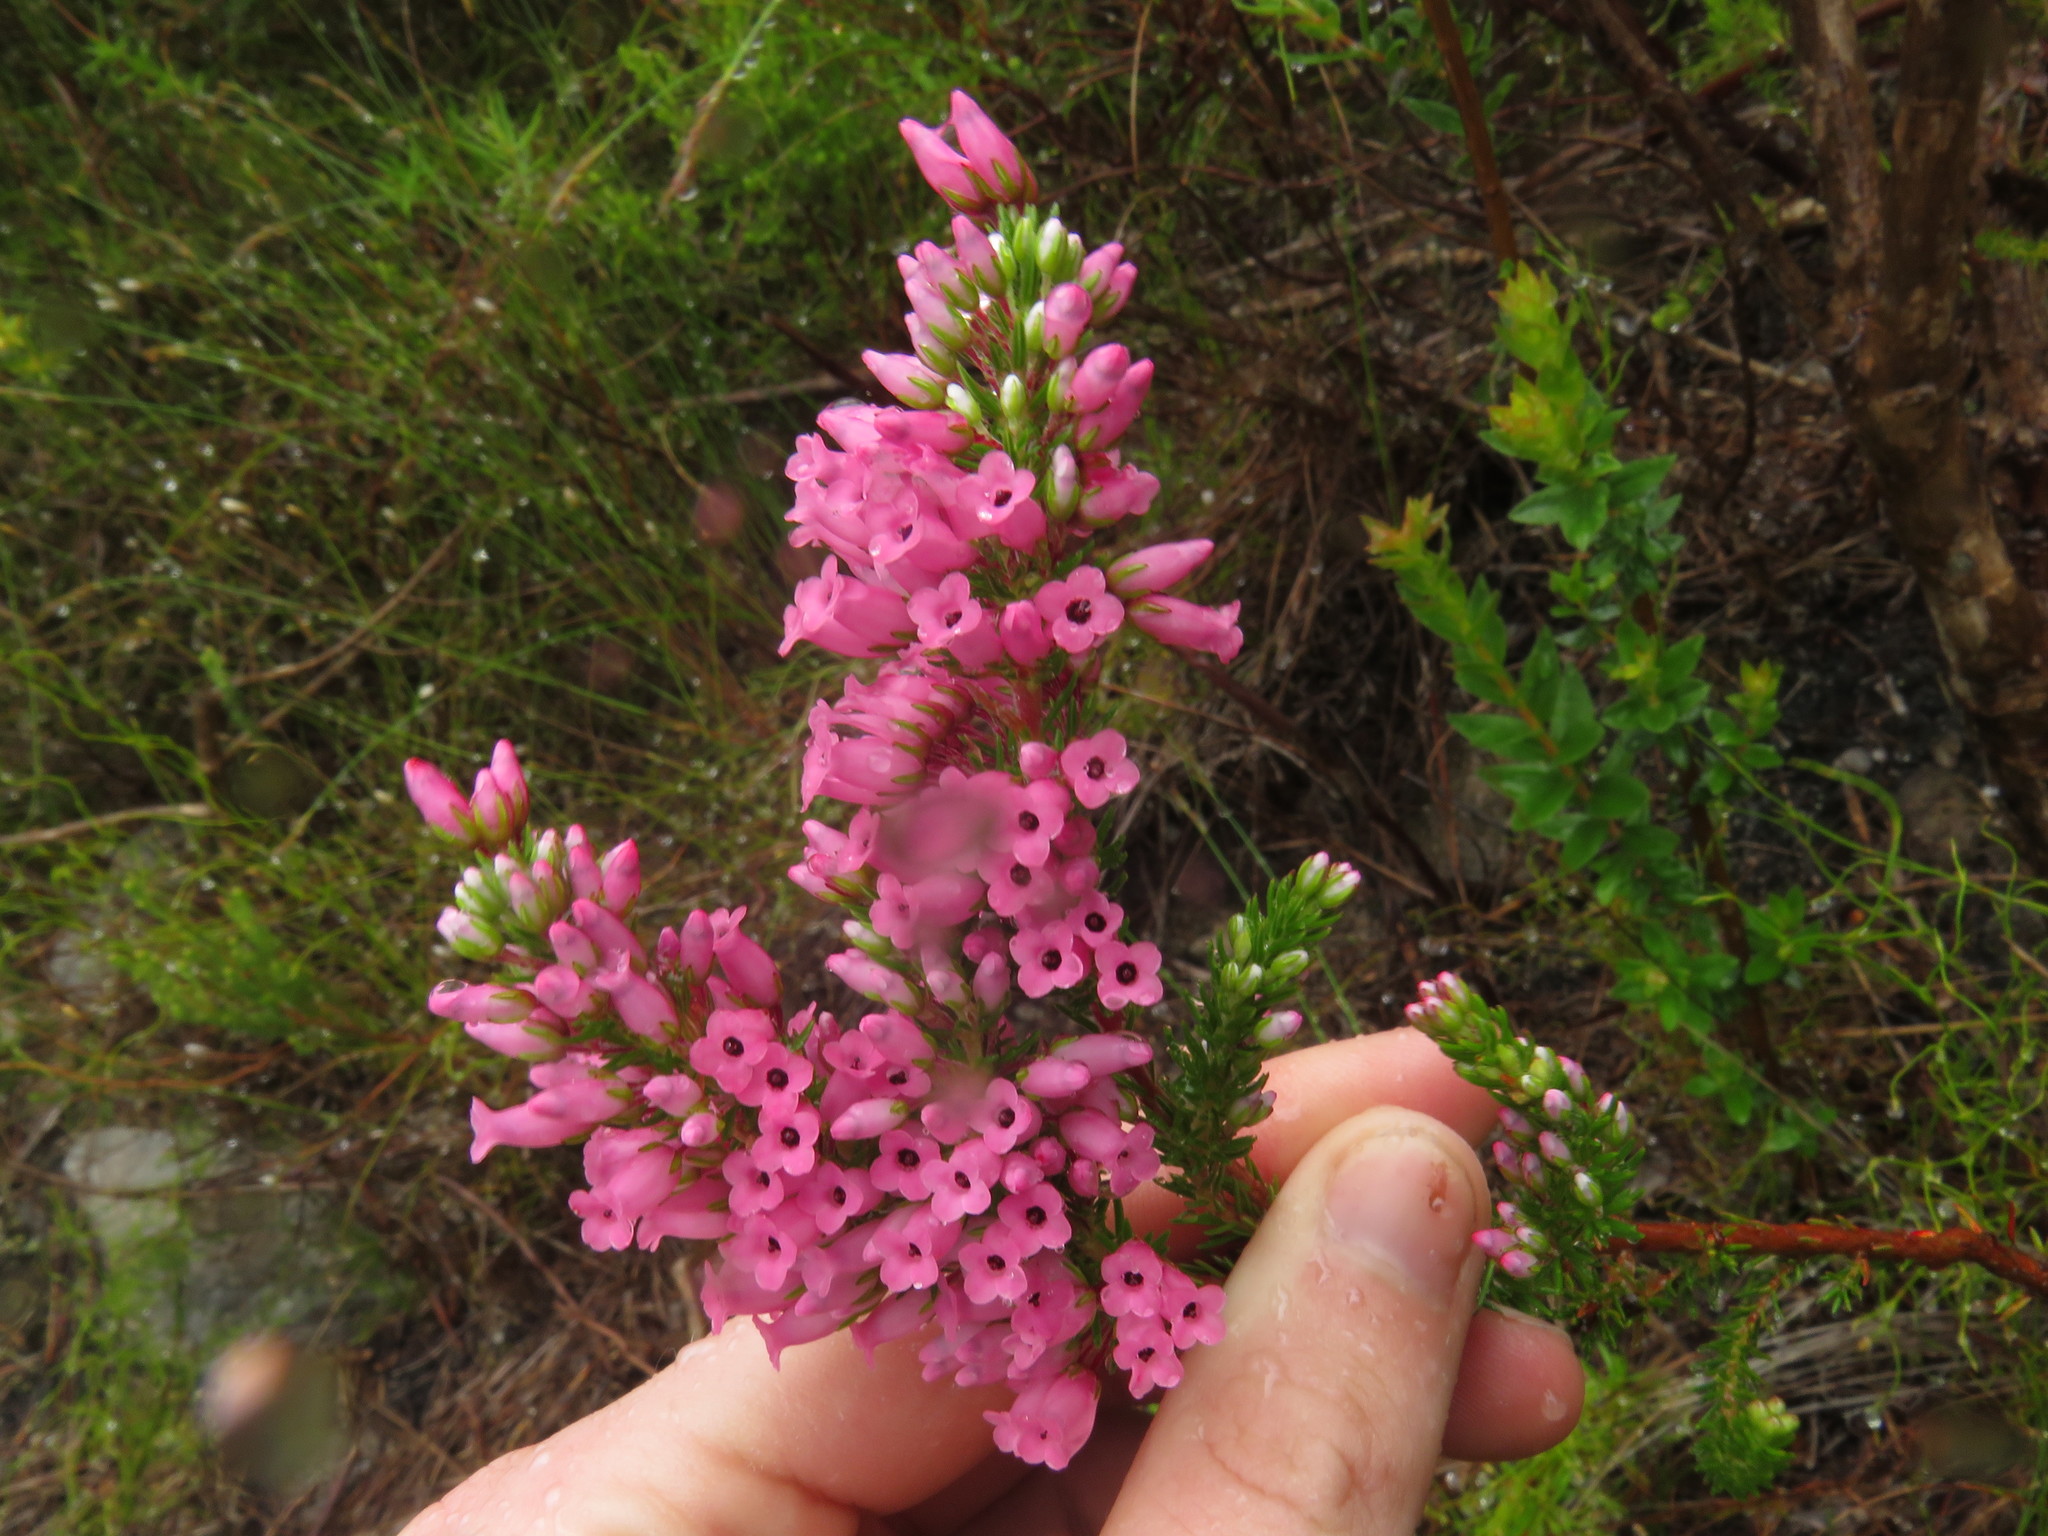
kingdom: Plantae
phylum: Tracheophyta
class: Magnoliopsida
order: Ericales
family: Ericaceae
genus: Erica
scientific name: Erica tenella
